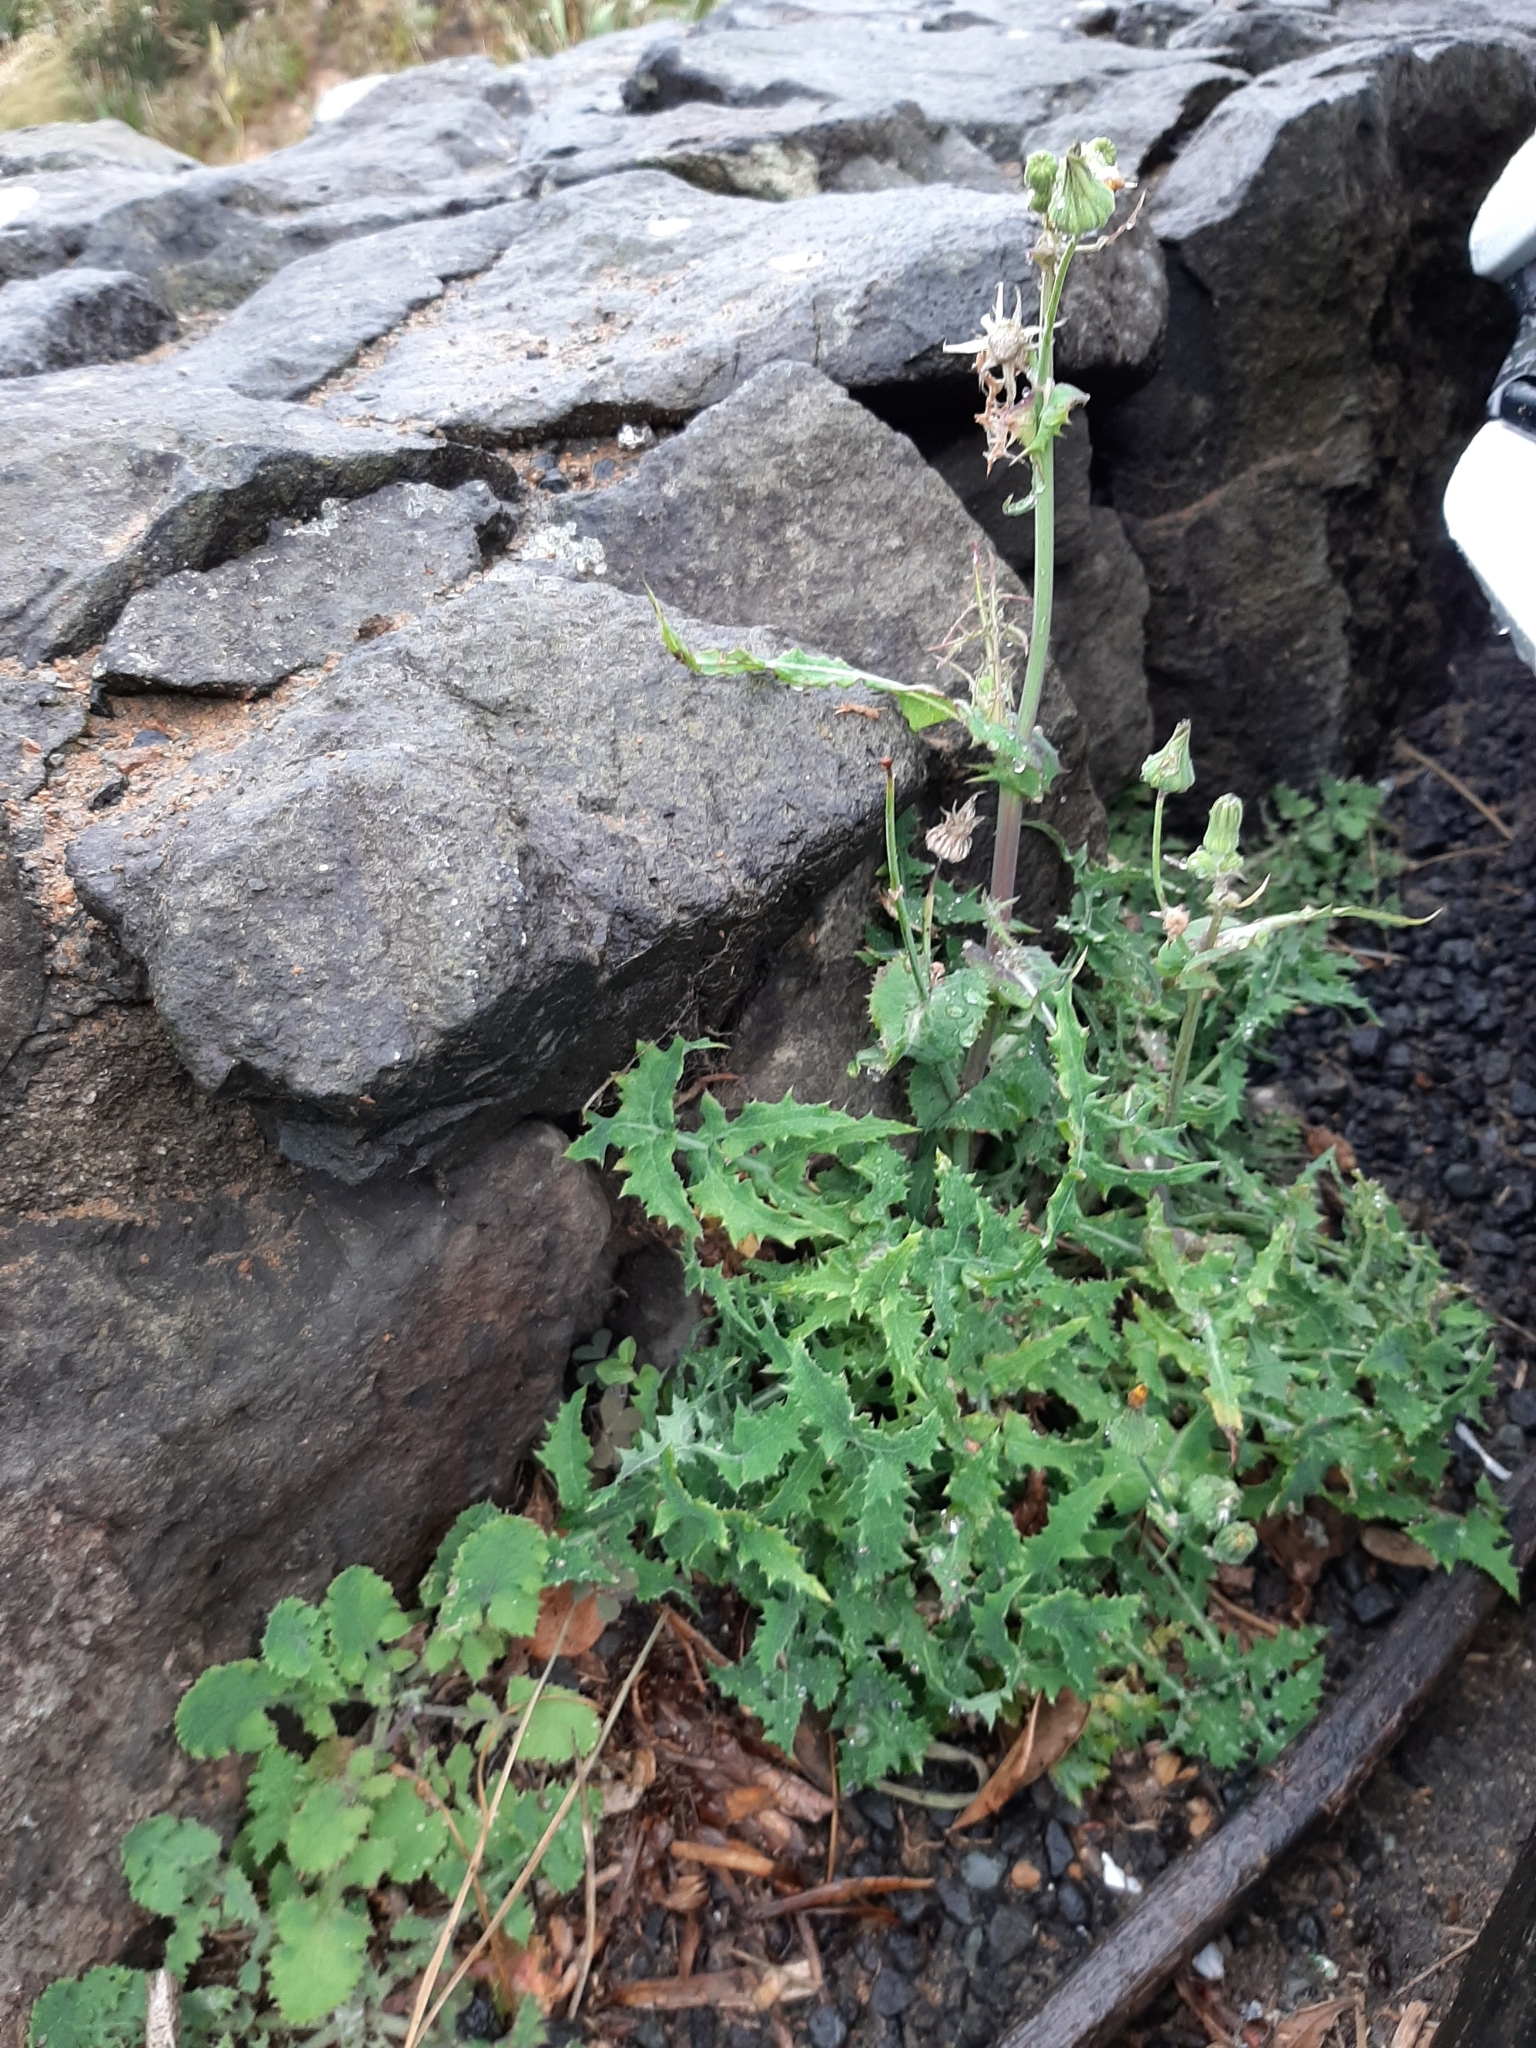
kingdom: Plantae
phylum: Tracheophyta
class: Magnoliopsida
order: Asterales
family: Asteraceae
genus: Sonchus
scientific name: Sonchus asper
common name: Prickly sow-thistle
